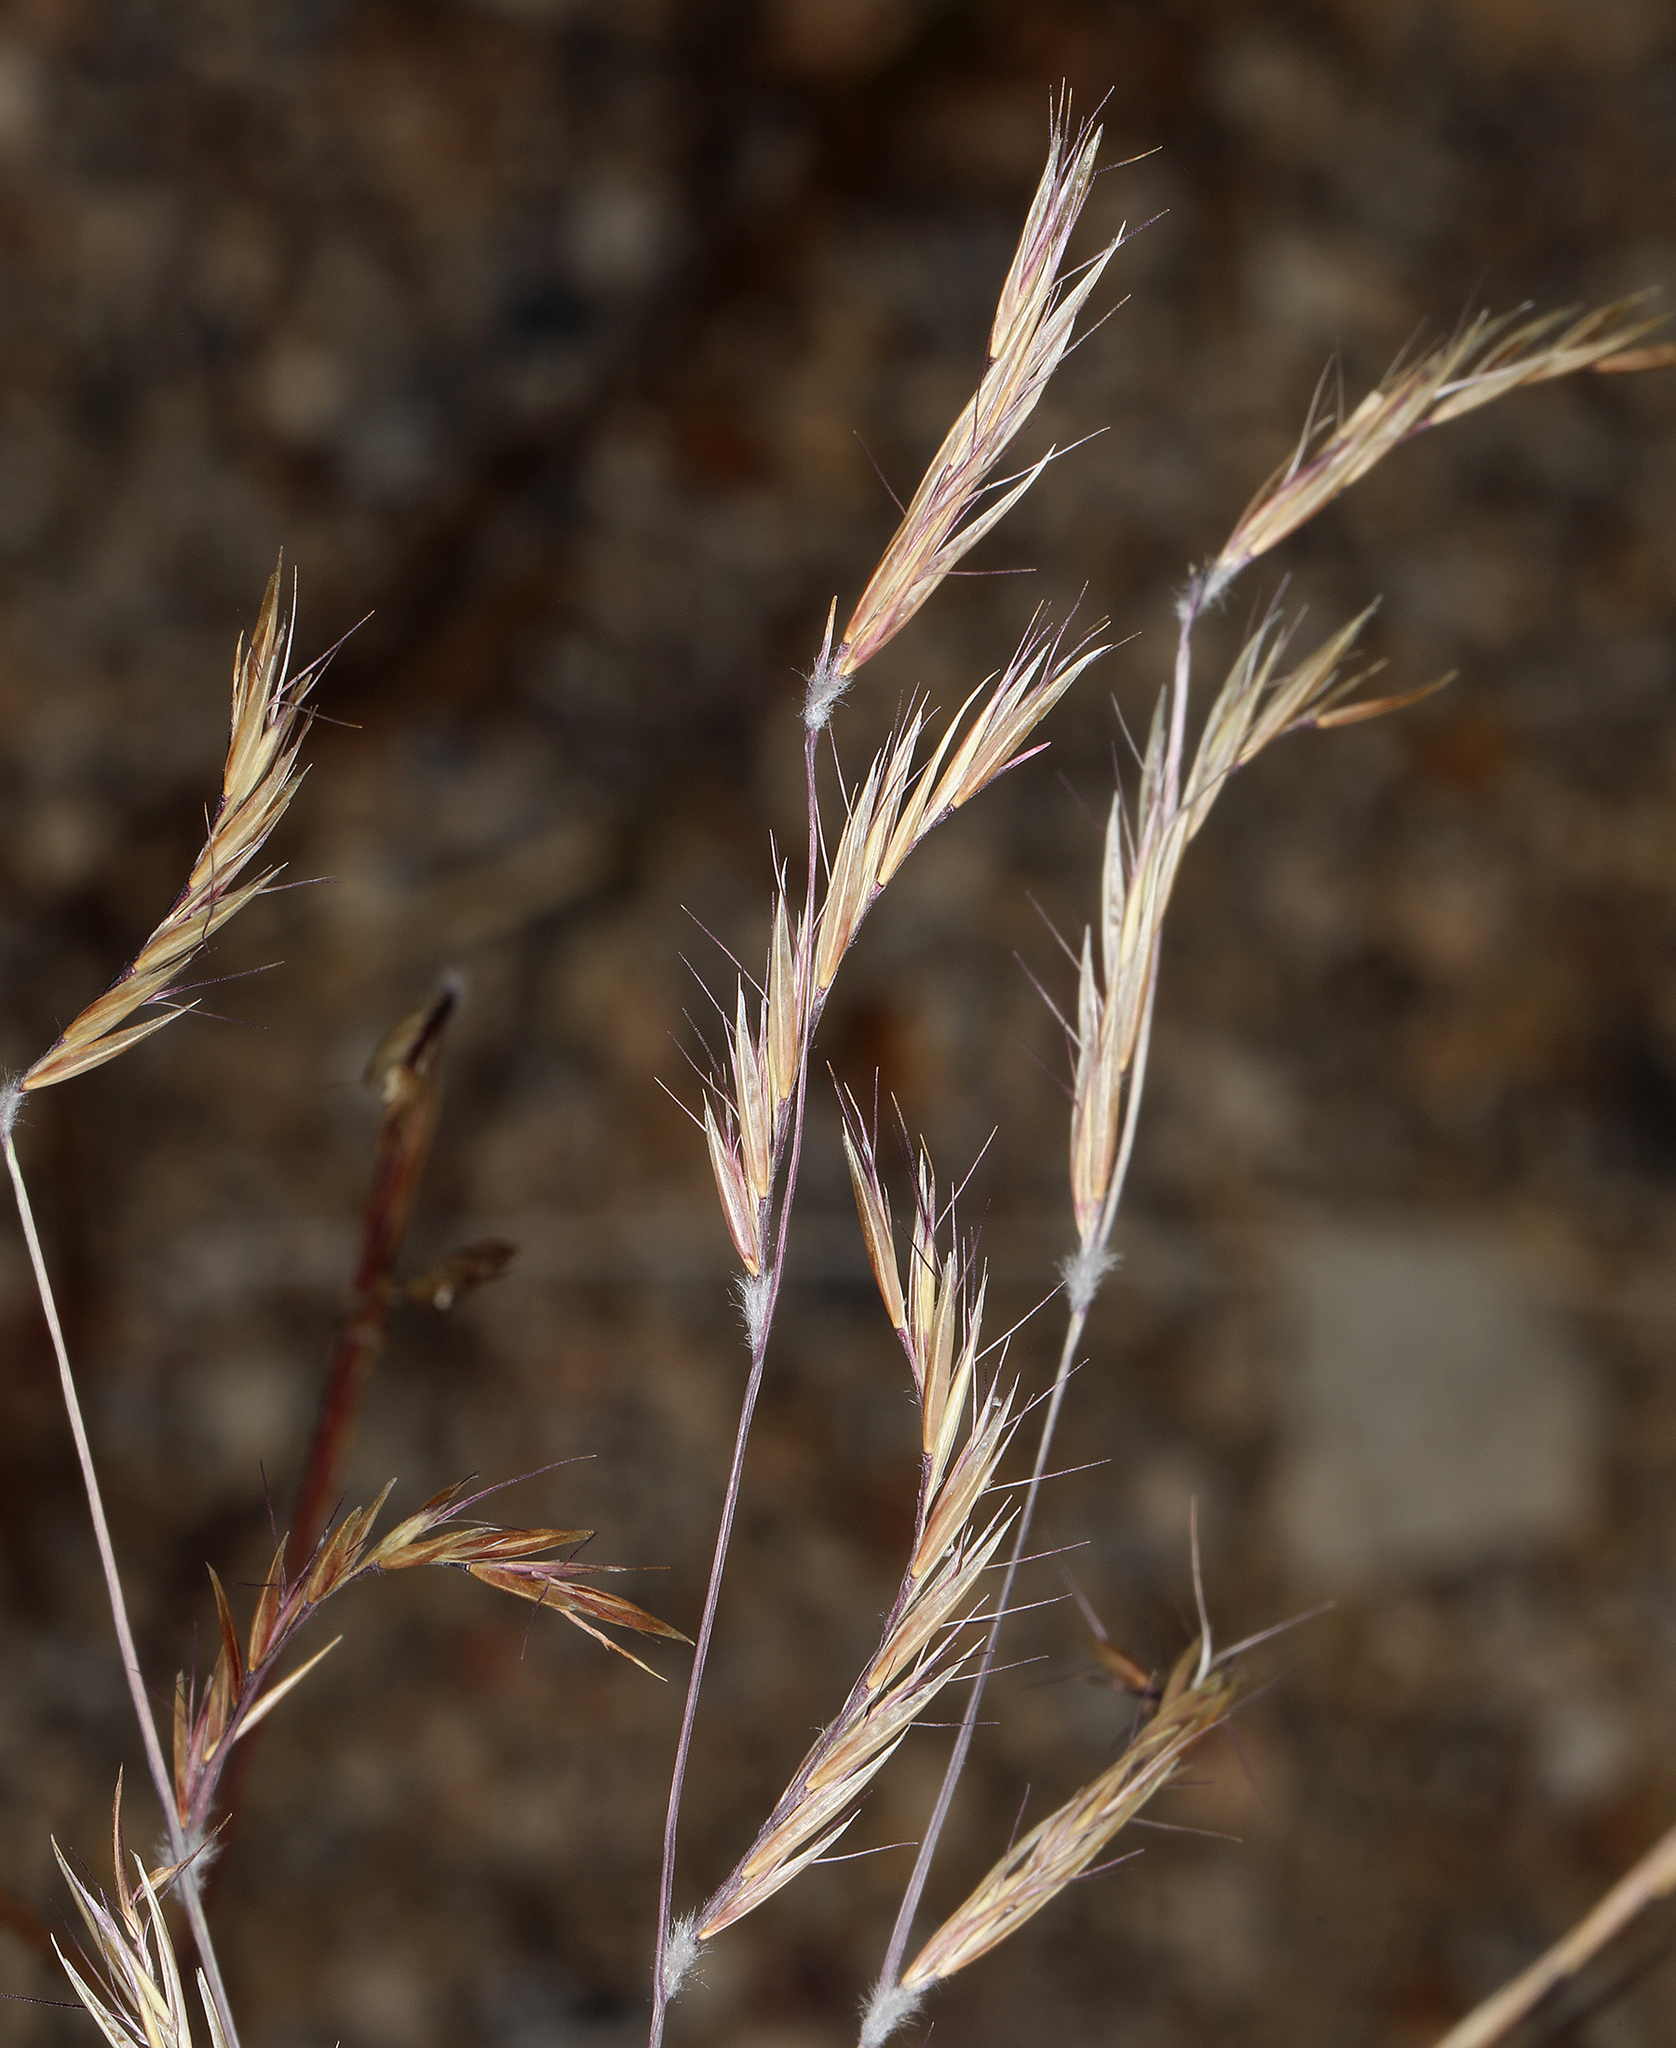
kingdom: Plantae
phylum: Tracheophyta
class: Liliopsida
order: Poales
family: Poaceae
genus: Bouteloua
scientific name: Bouteloua eriopoda
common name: Woolly foot grama
